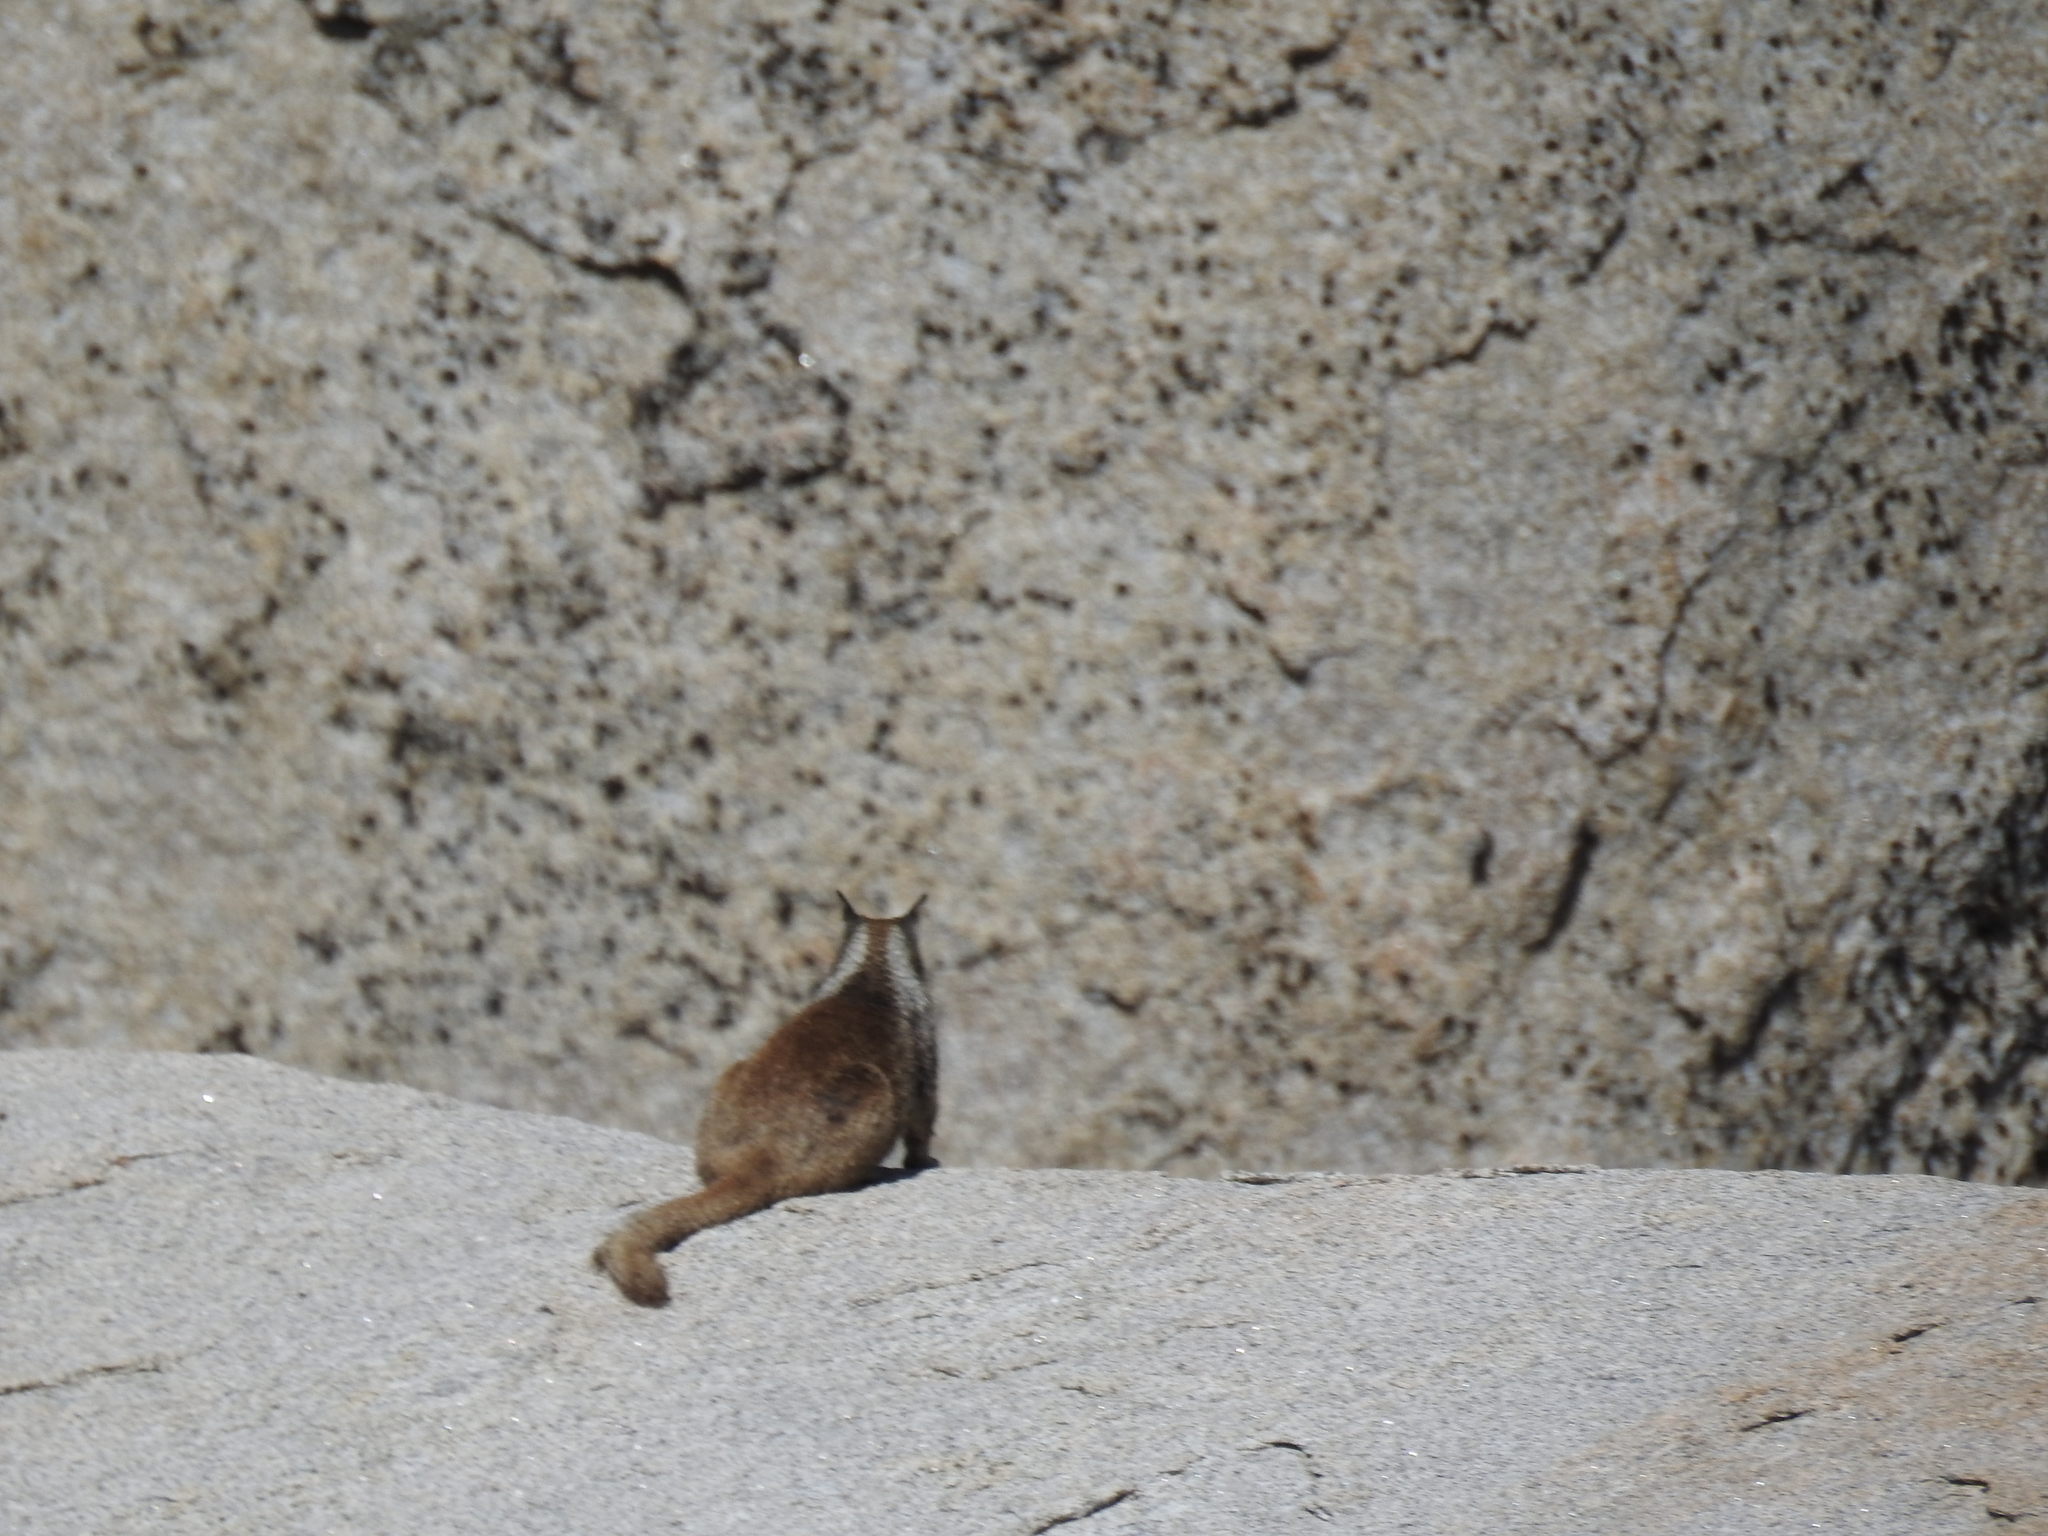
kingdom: Animalia
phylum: Chordata
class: Mammalia
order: Rodentia
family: Sciuridae
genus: Otospermophilus
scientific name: Otospermophilus beecheyi
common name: California ground squirrel
